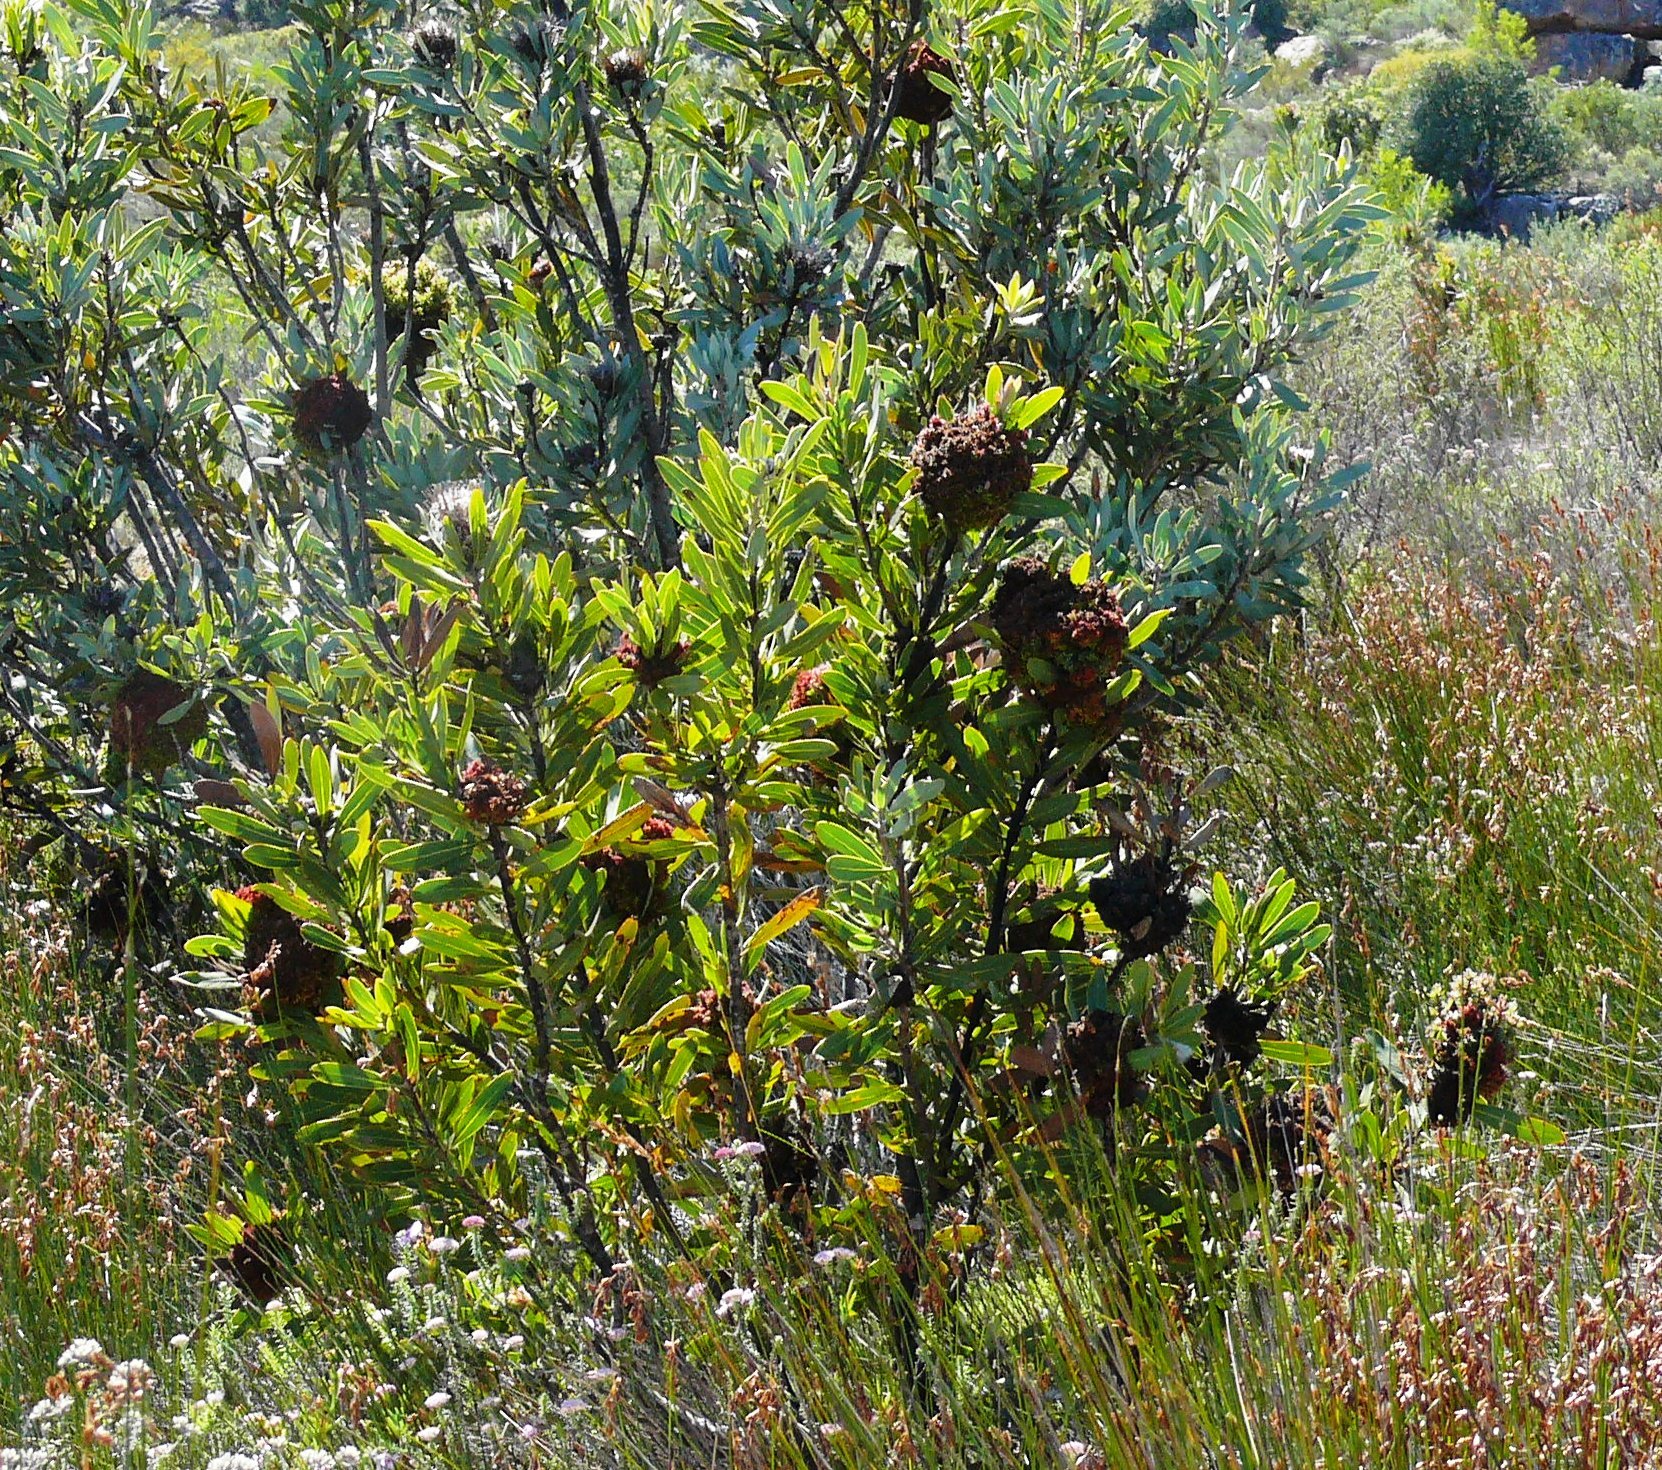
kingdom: Bacteria
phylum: Firmicutes
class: Bacilli
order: Acholeplasmatales
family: Acholeplasmataceae
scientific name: Acholeplasmataceae
